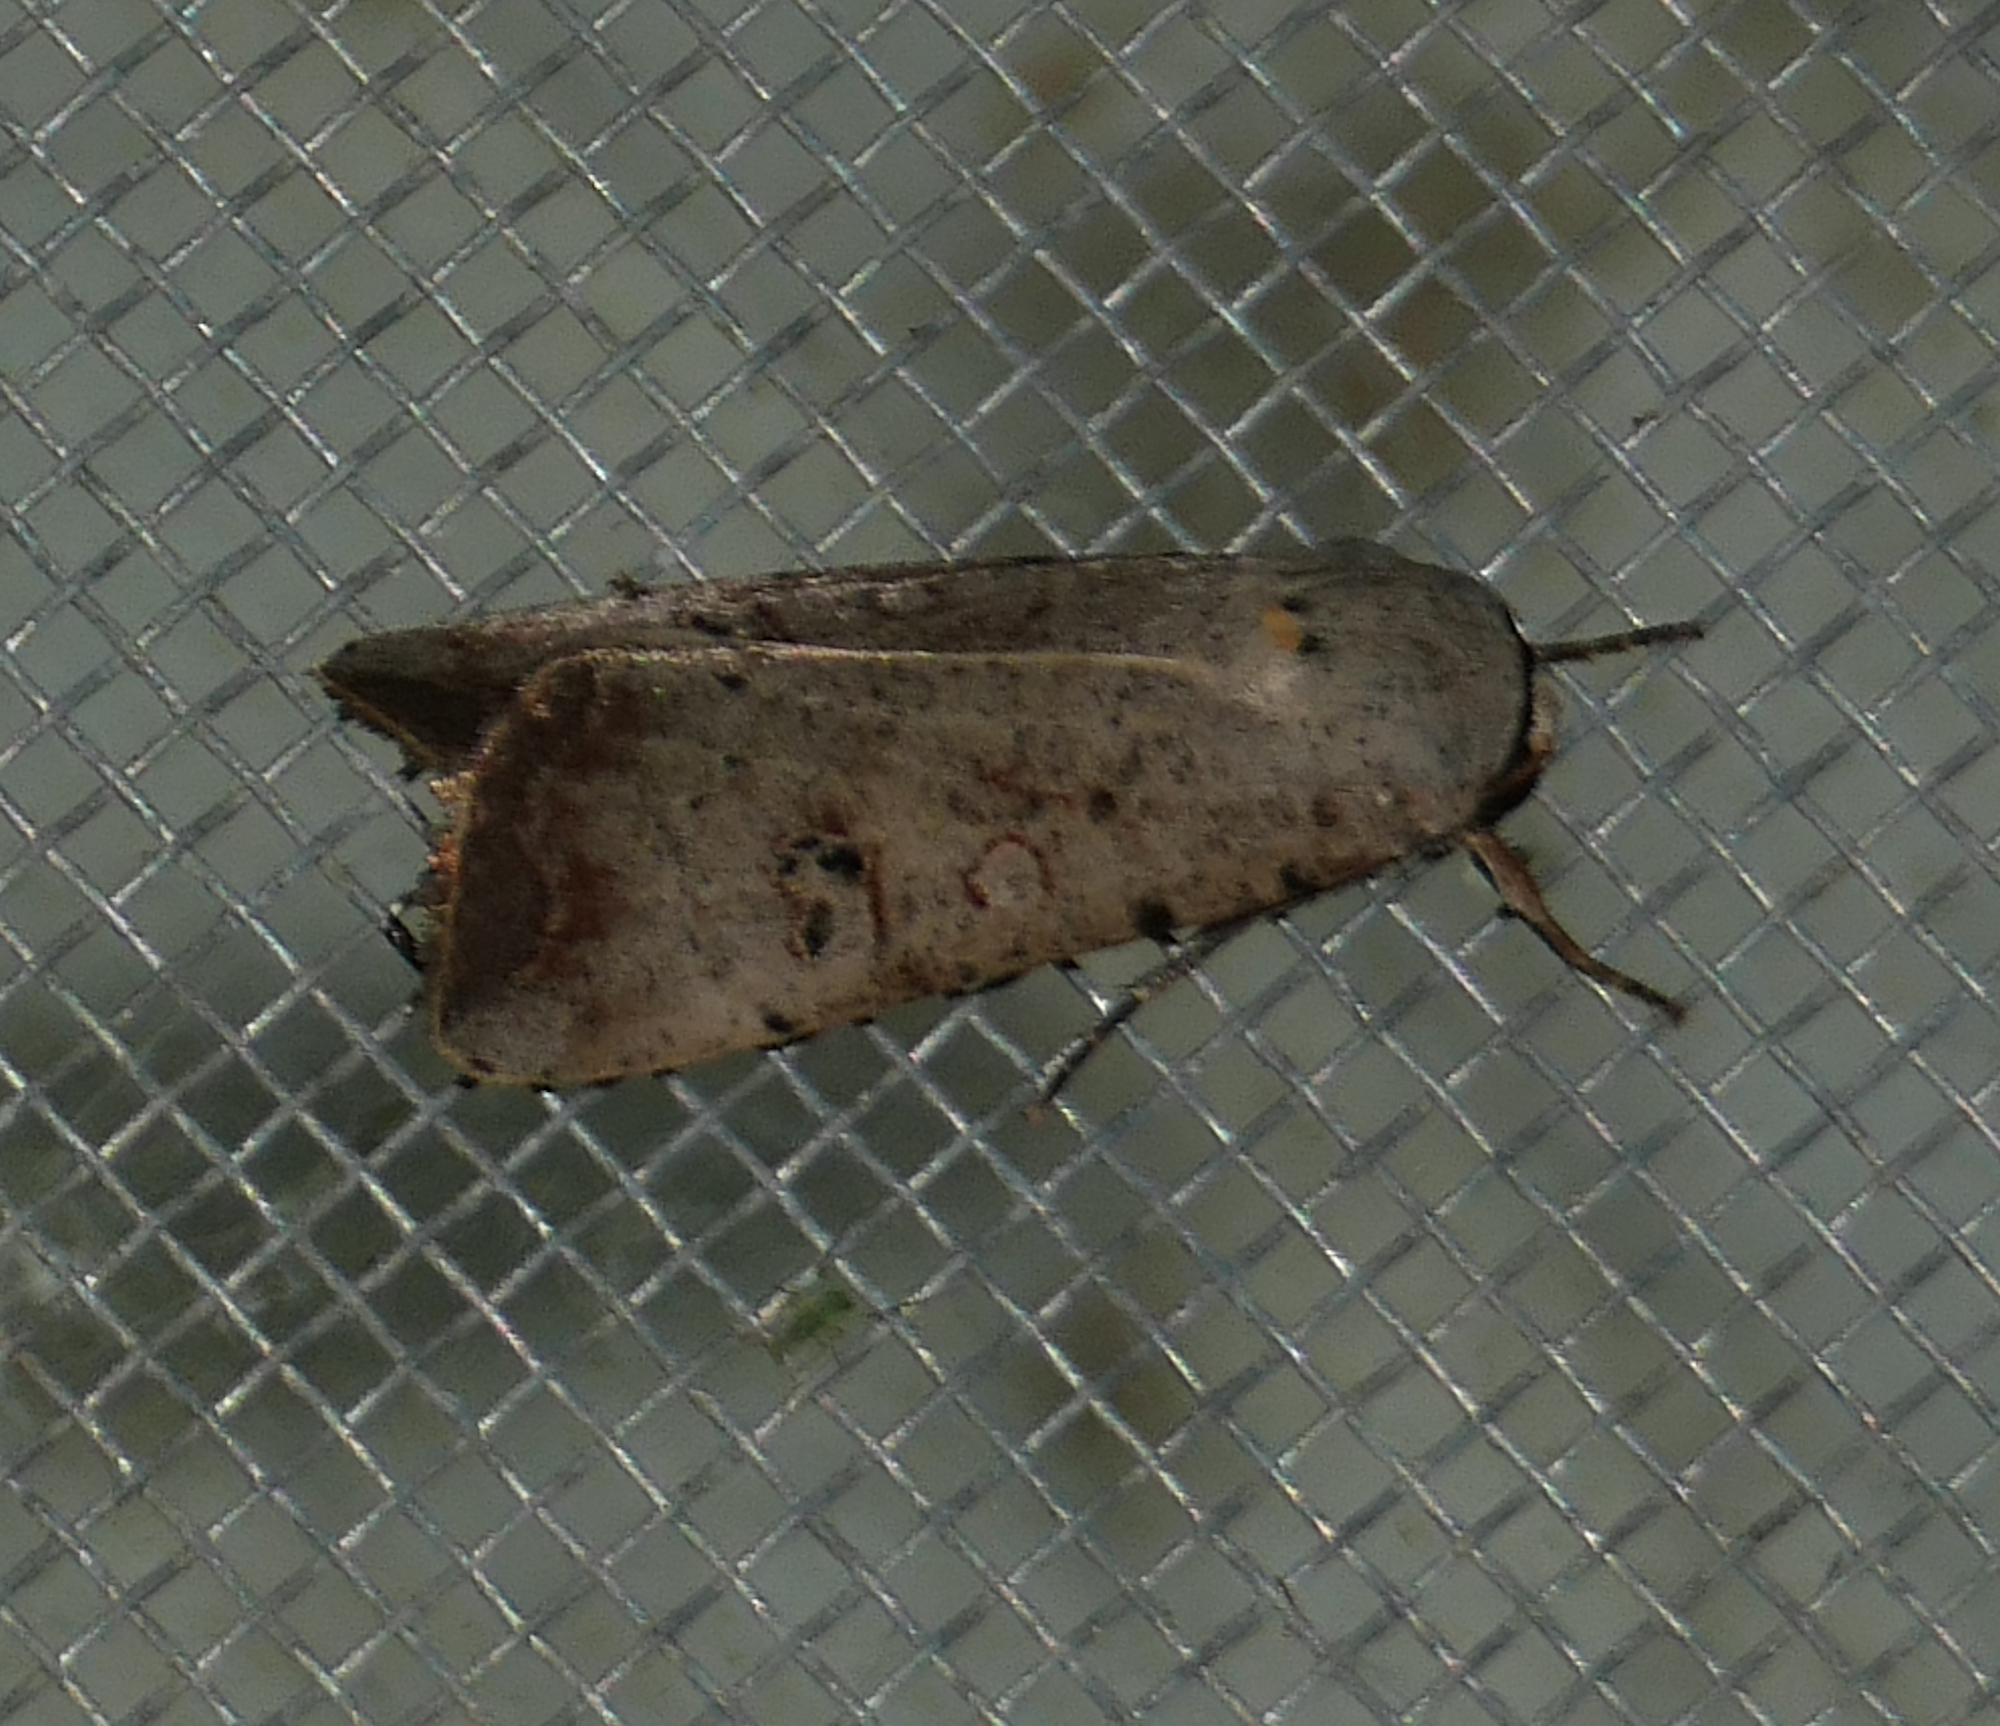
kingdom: Animalia
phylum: Arthropoda
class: Insecta
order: Lepidoptera
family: Noctuidae
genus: Anicla
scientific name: Anicla infecta
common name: Green cutworm
